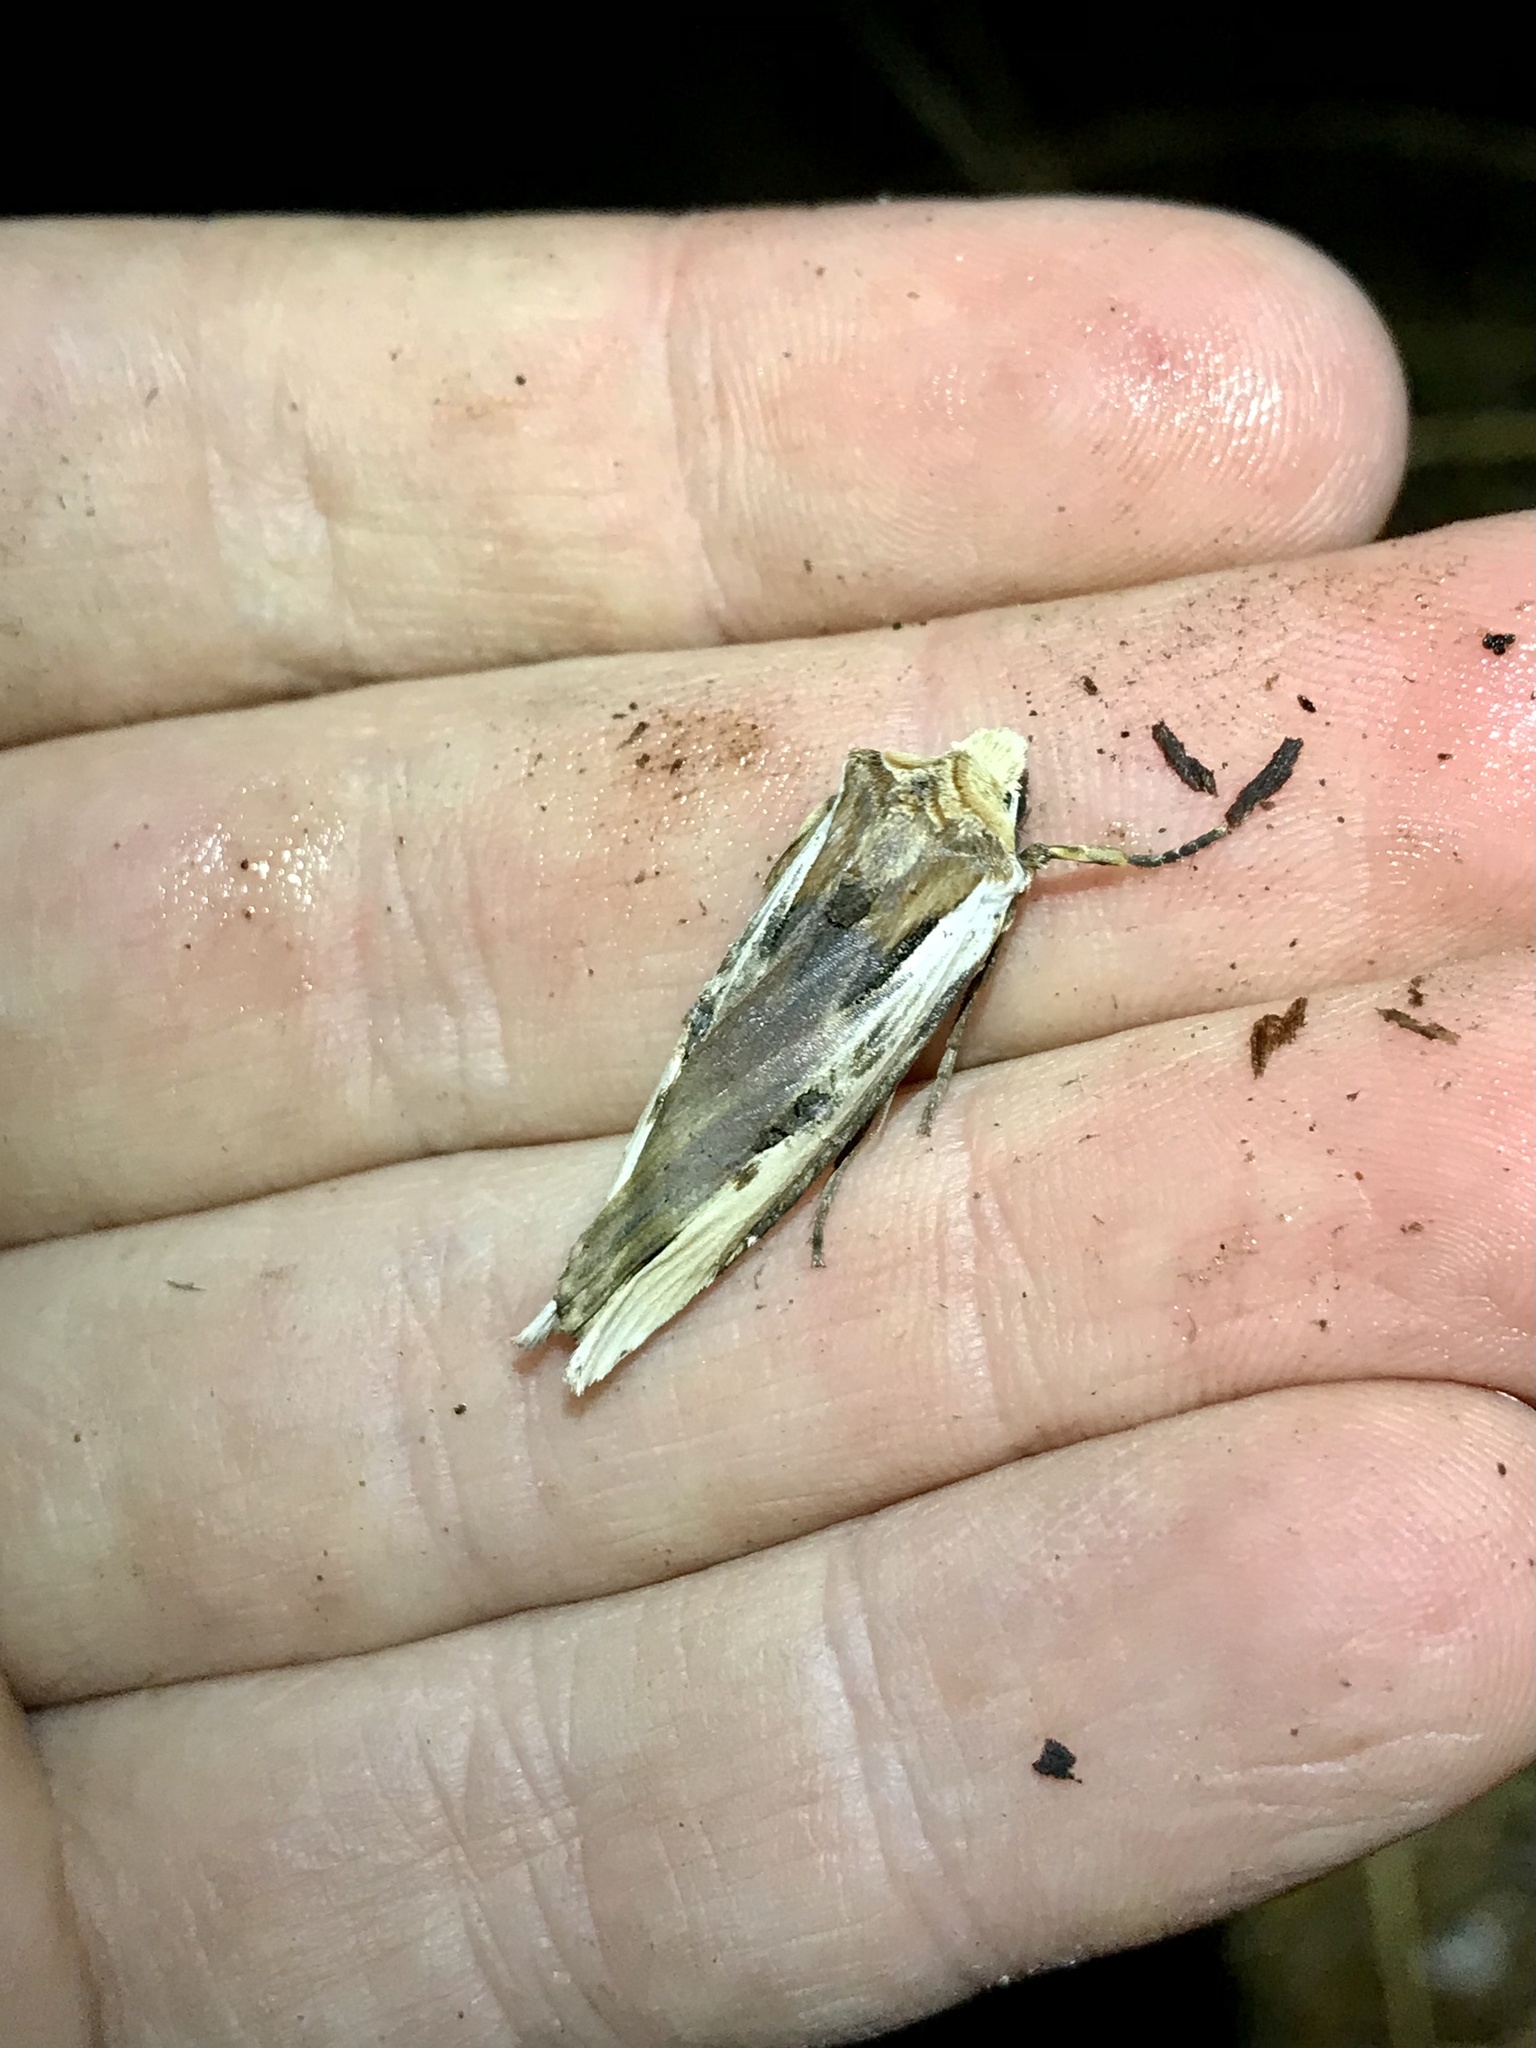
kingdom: Animalia
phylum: Arthropoda
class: Insecta
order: Lepidoptera
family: Noctuidae
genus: Xylena
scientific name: Xylena curvimacula
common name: Dot-and-dash swordgrass moth
